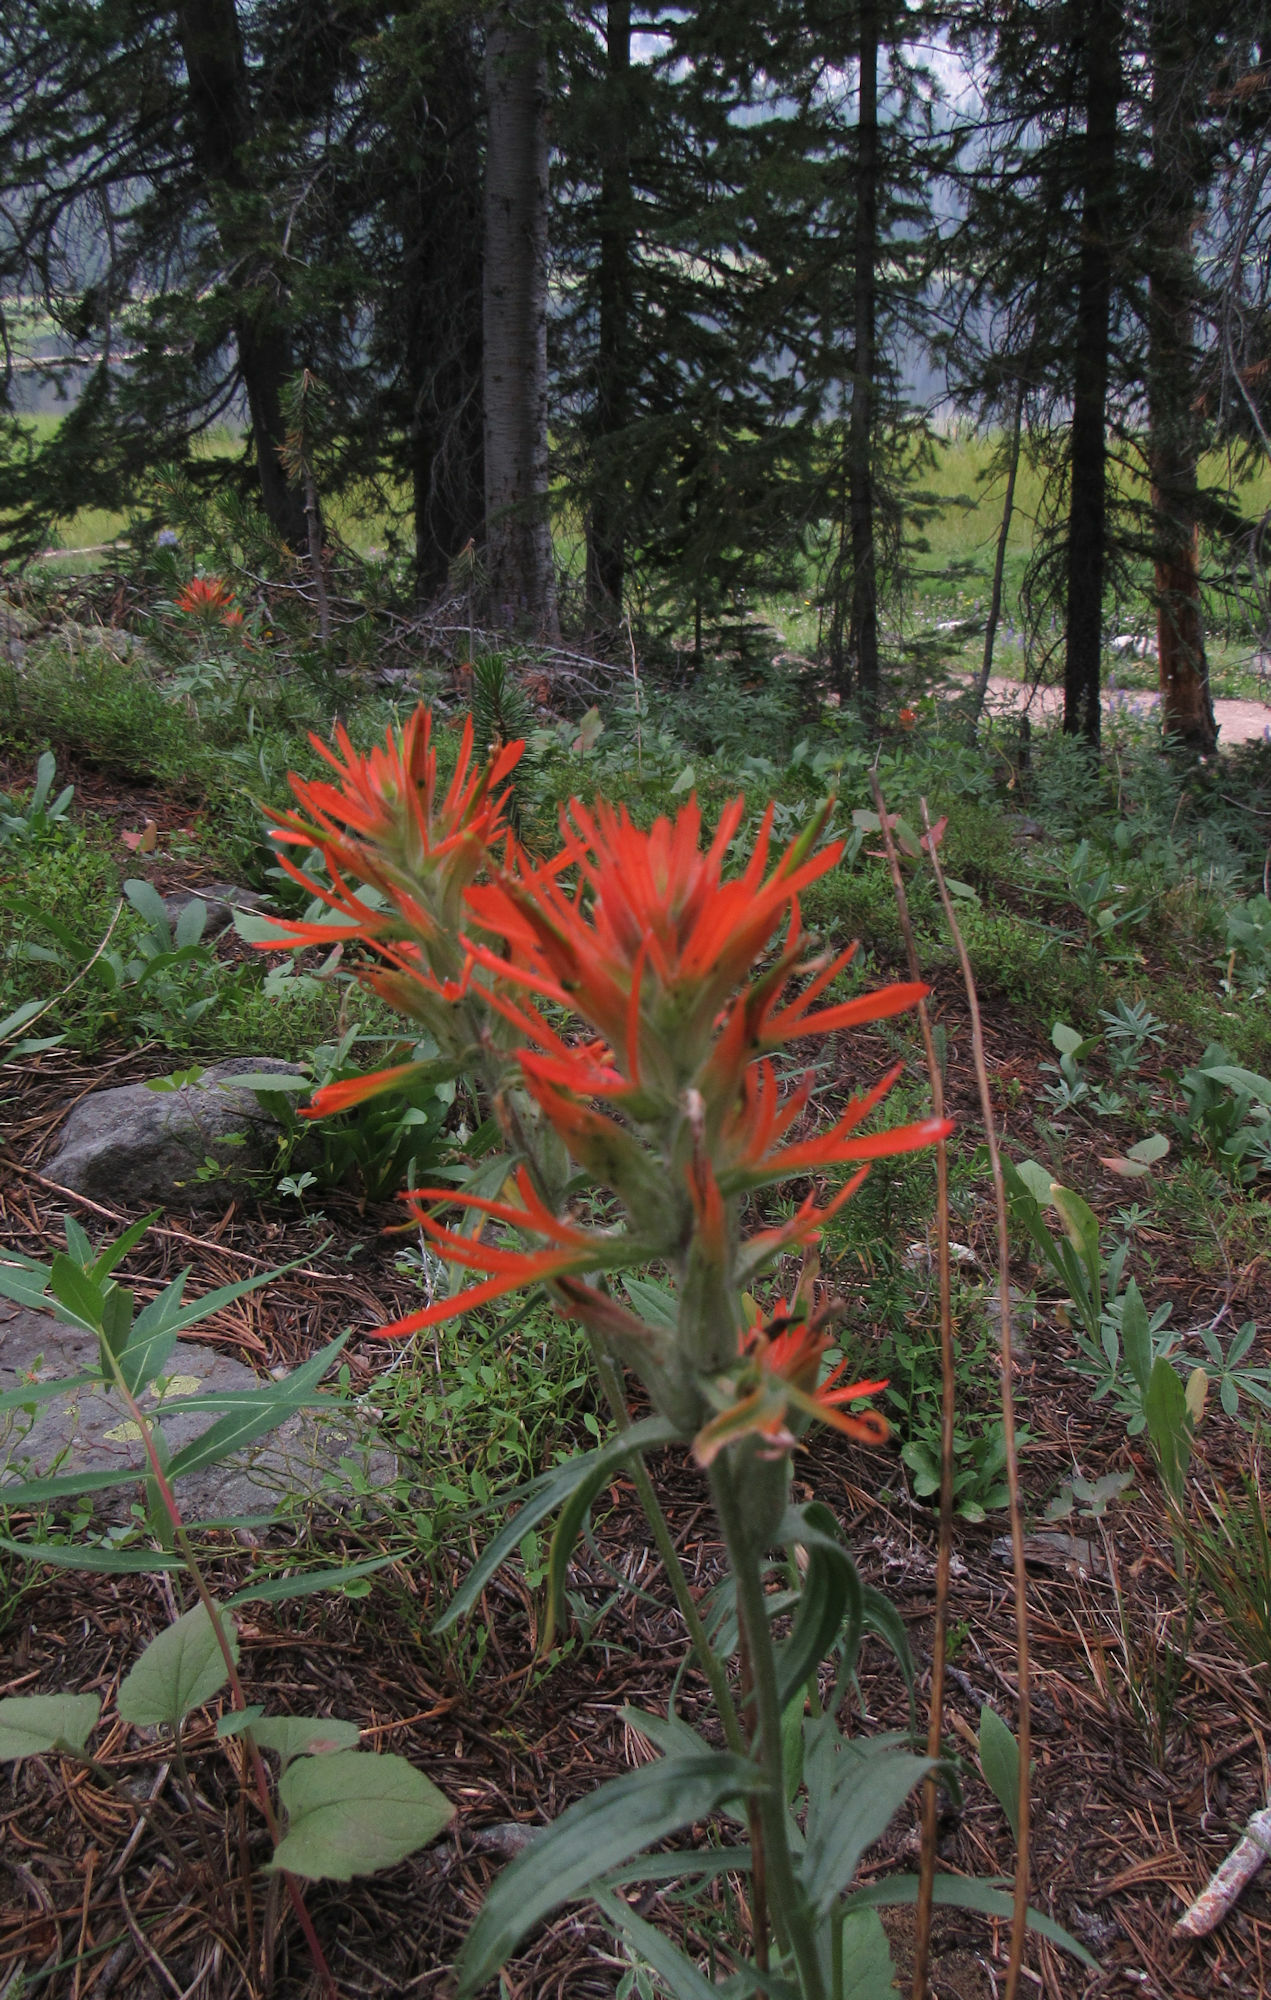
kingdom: Plantae
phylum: Tracheophyta
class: Magnoliopsida
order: Lamiales
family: Orobanchaceae
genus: Castilleja
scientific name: Castilleja miniata
